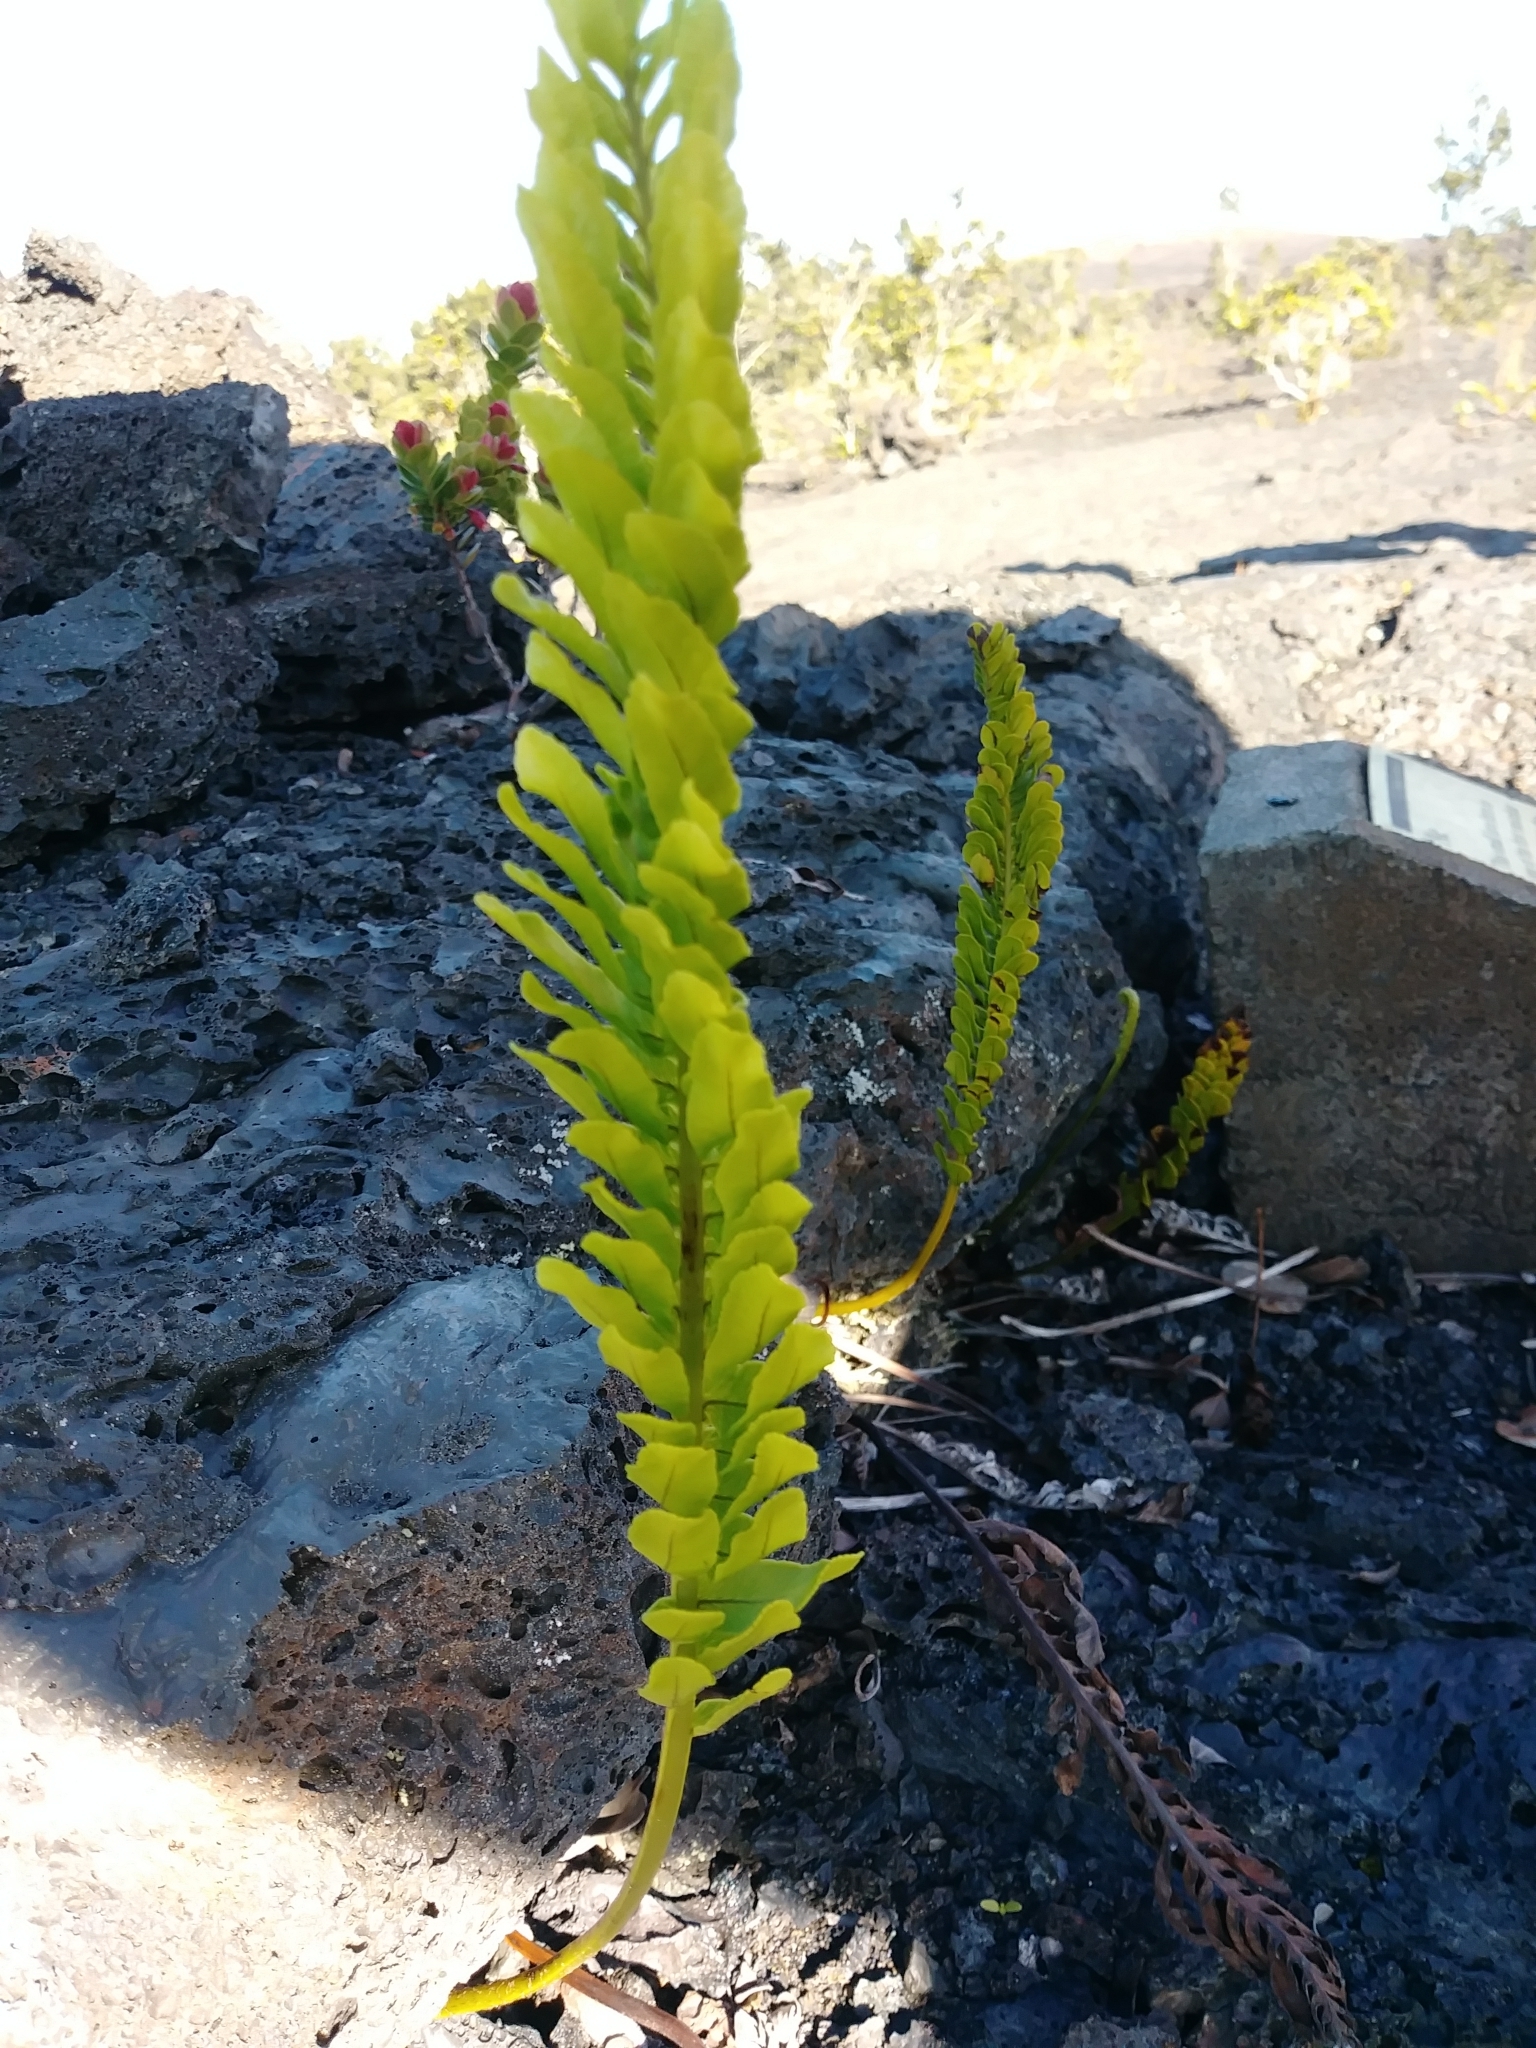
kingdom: Plantae
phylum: Tracheophyta
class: Polypodiopsida
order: Polypodiales
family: Polypodiaceae
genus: Polypodium
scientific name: Polypodium pellucidum
